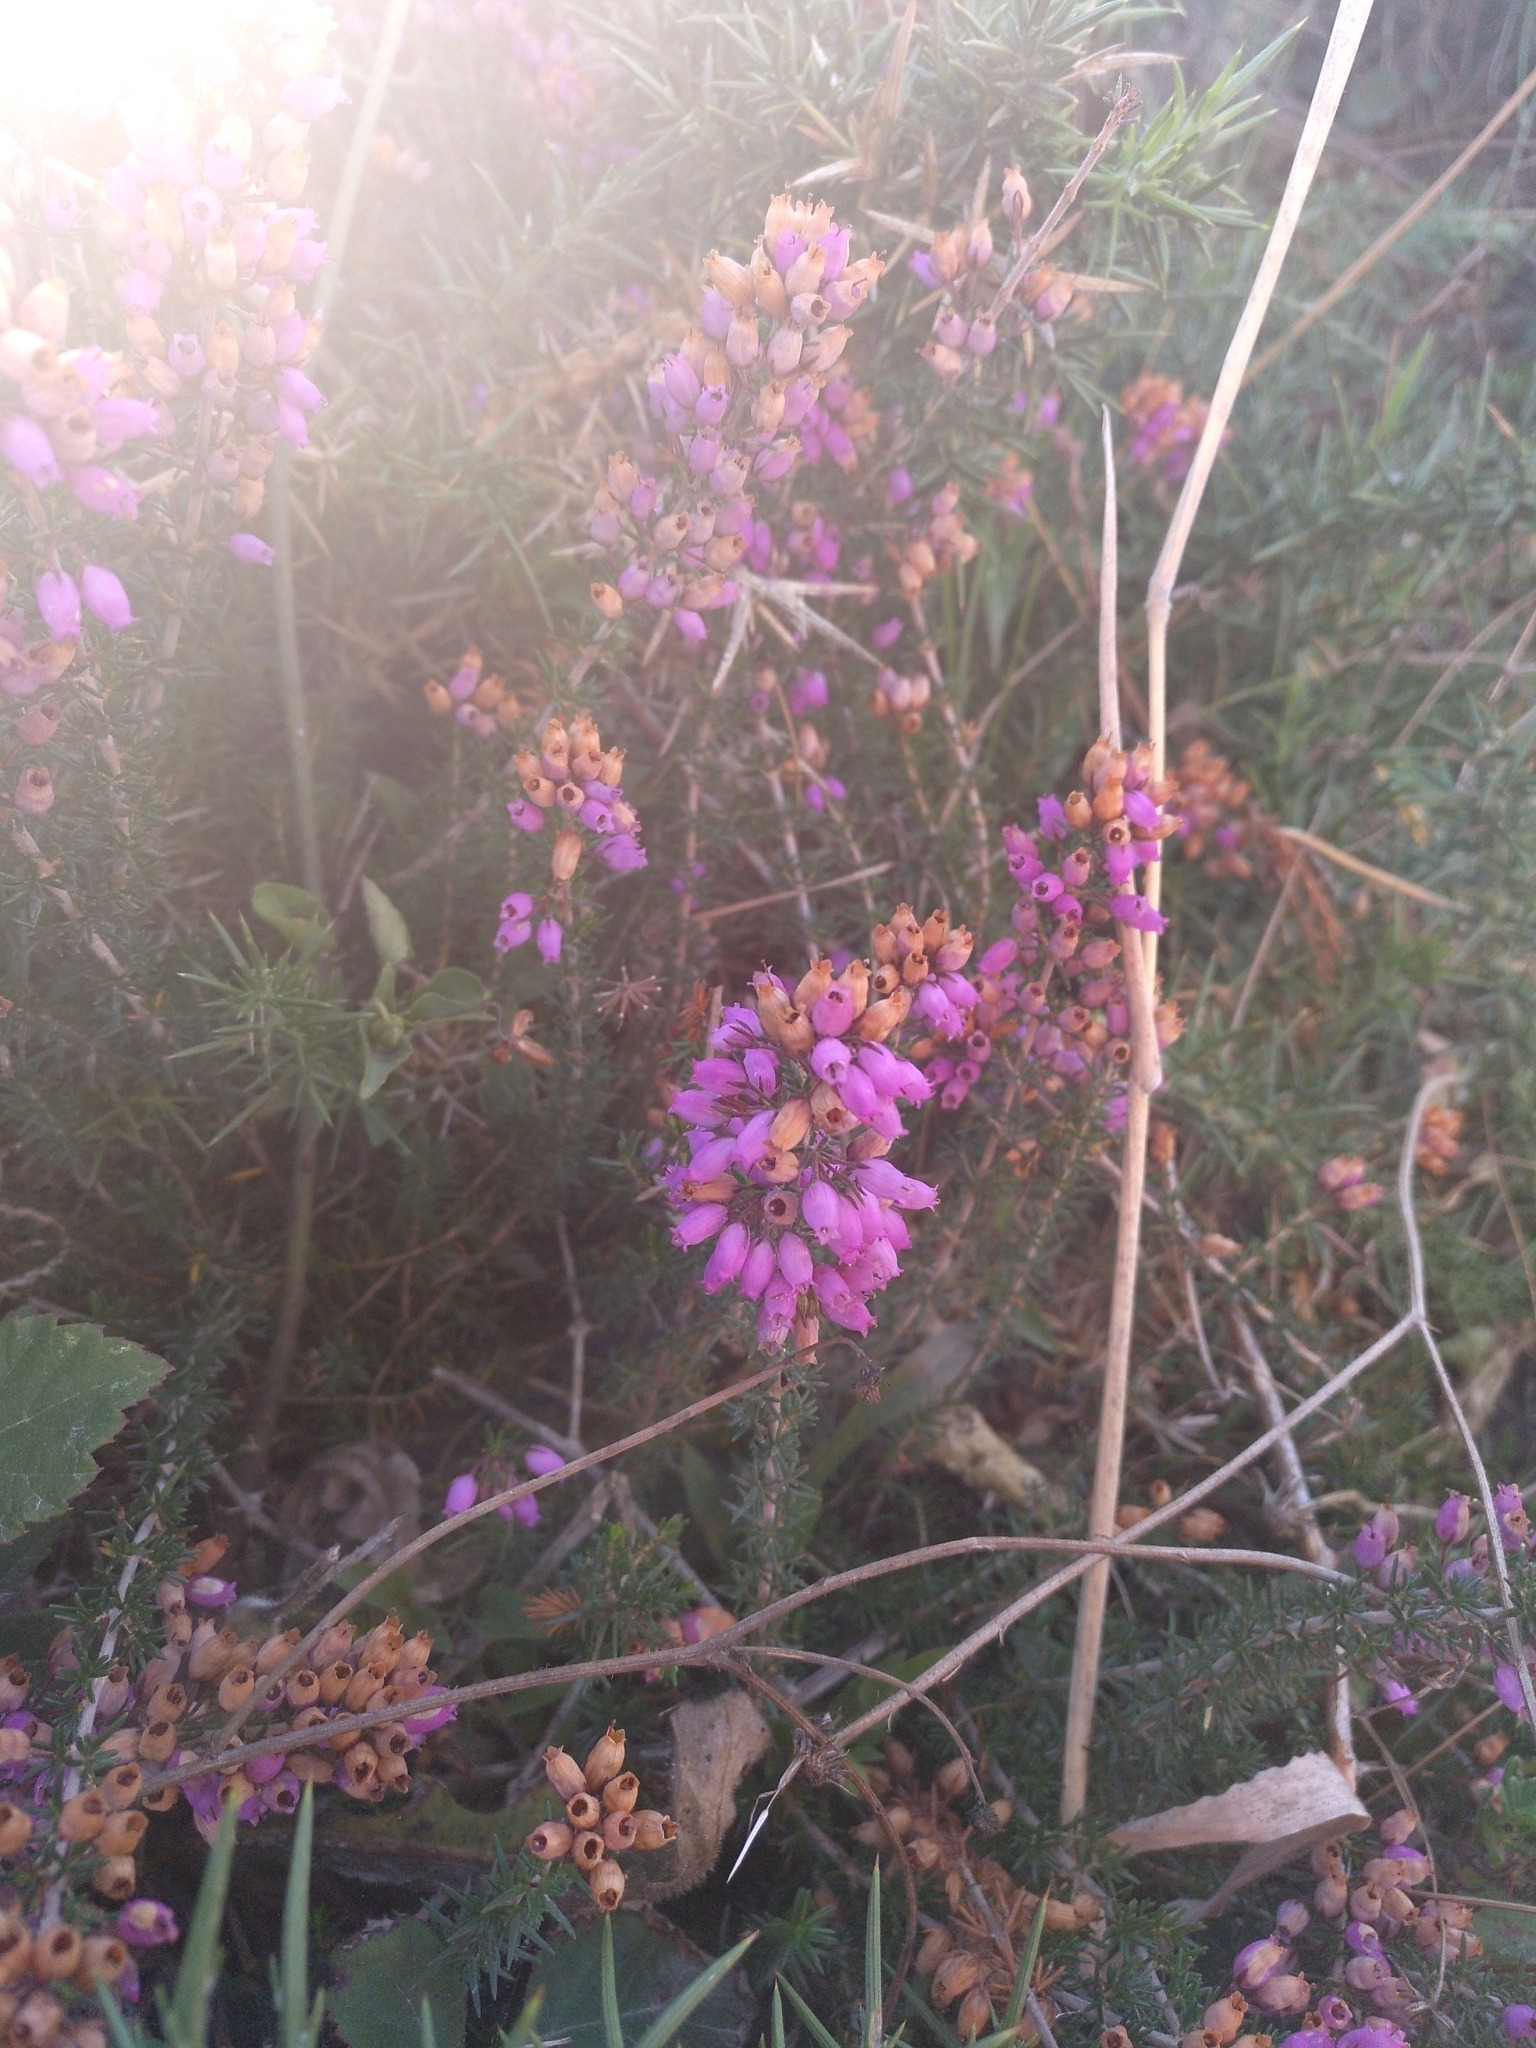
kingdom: Plantae
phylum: Tracheophyta
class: Magnoliopsida
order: Ericales
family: Ericaceae
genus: Erica
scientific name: Erica cinerea
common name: Bell heather
